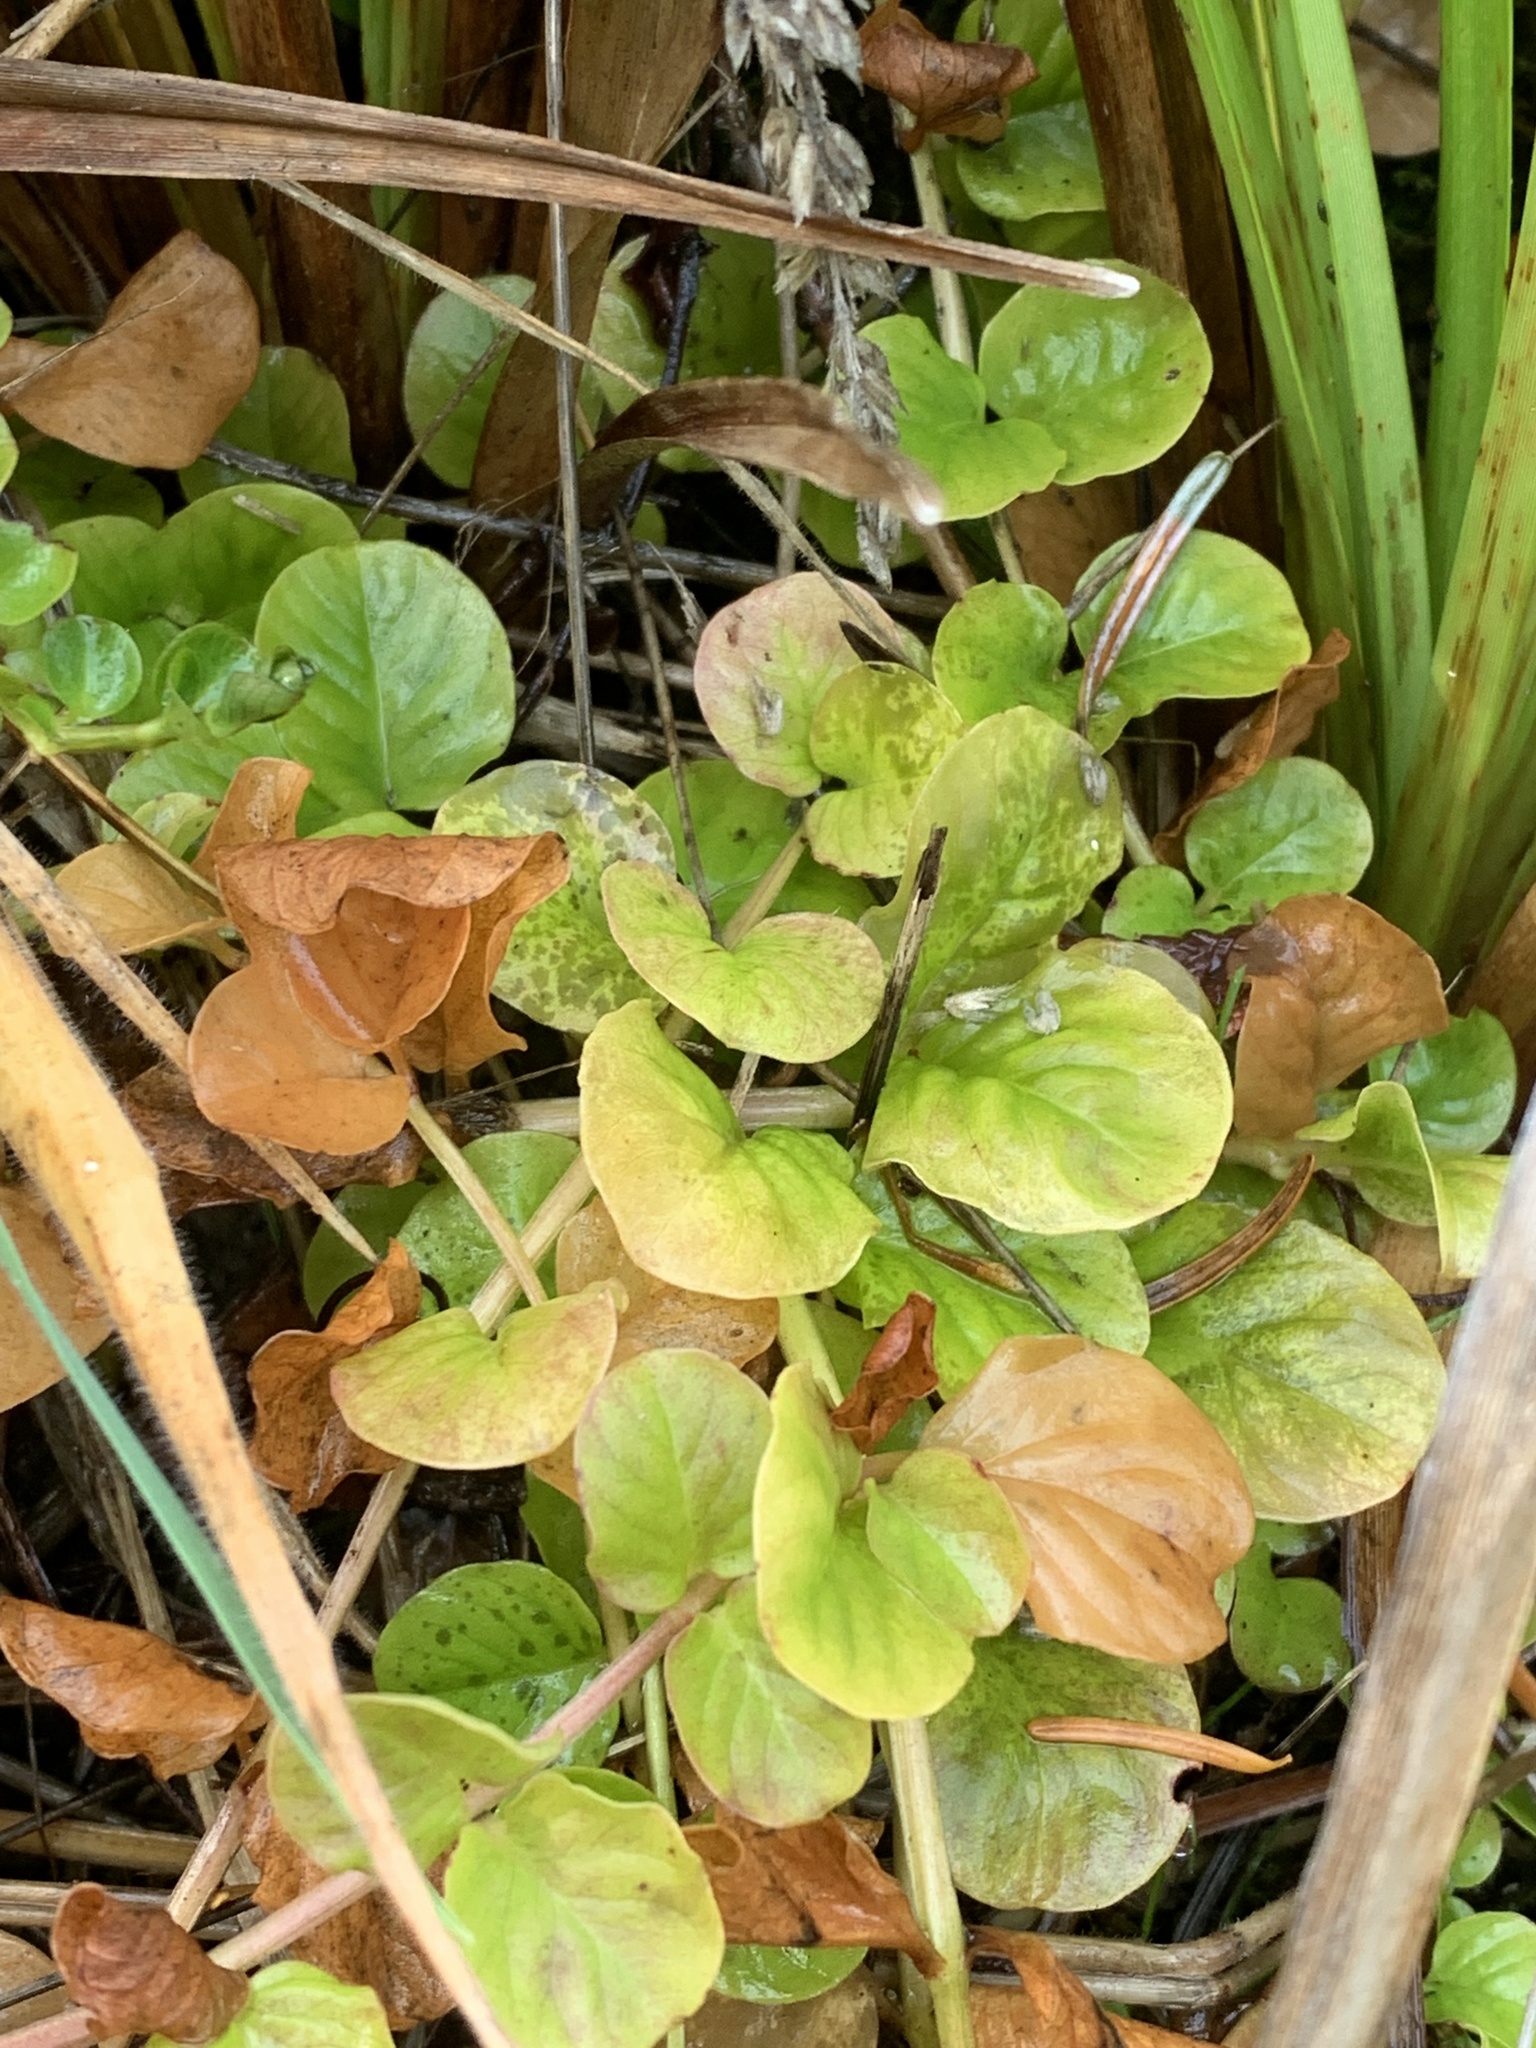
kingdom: Plantae
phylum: Tracheophyta
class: Magnoliopsida
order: Ericales
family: Primulaceae
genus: Lysimachia
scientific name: Lysimachia nummularia
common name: Moneywort
